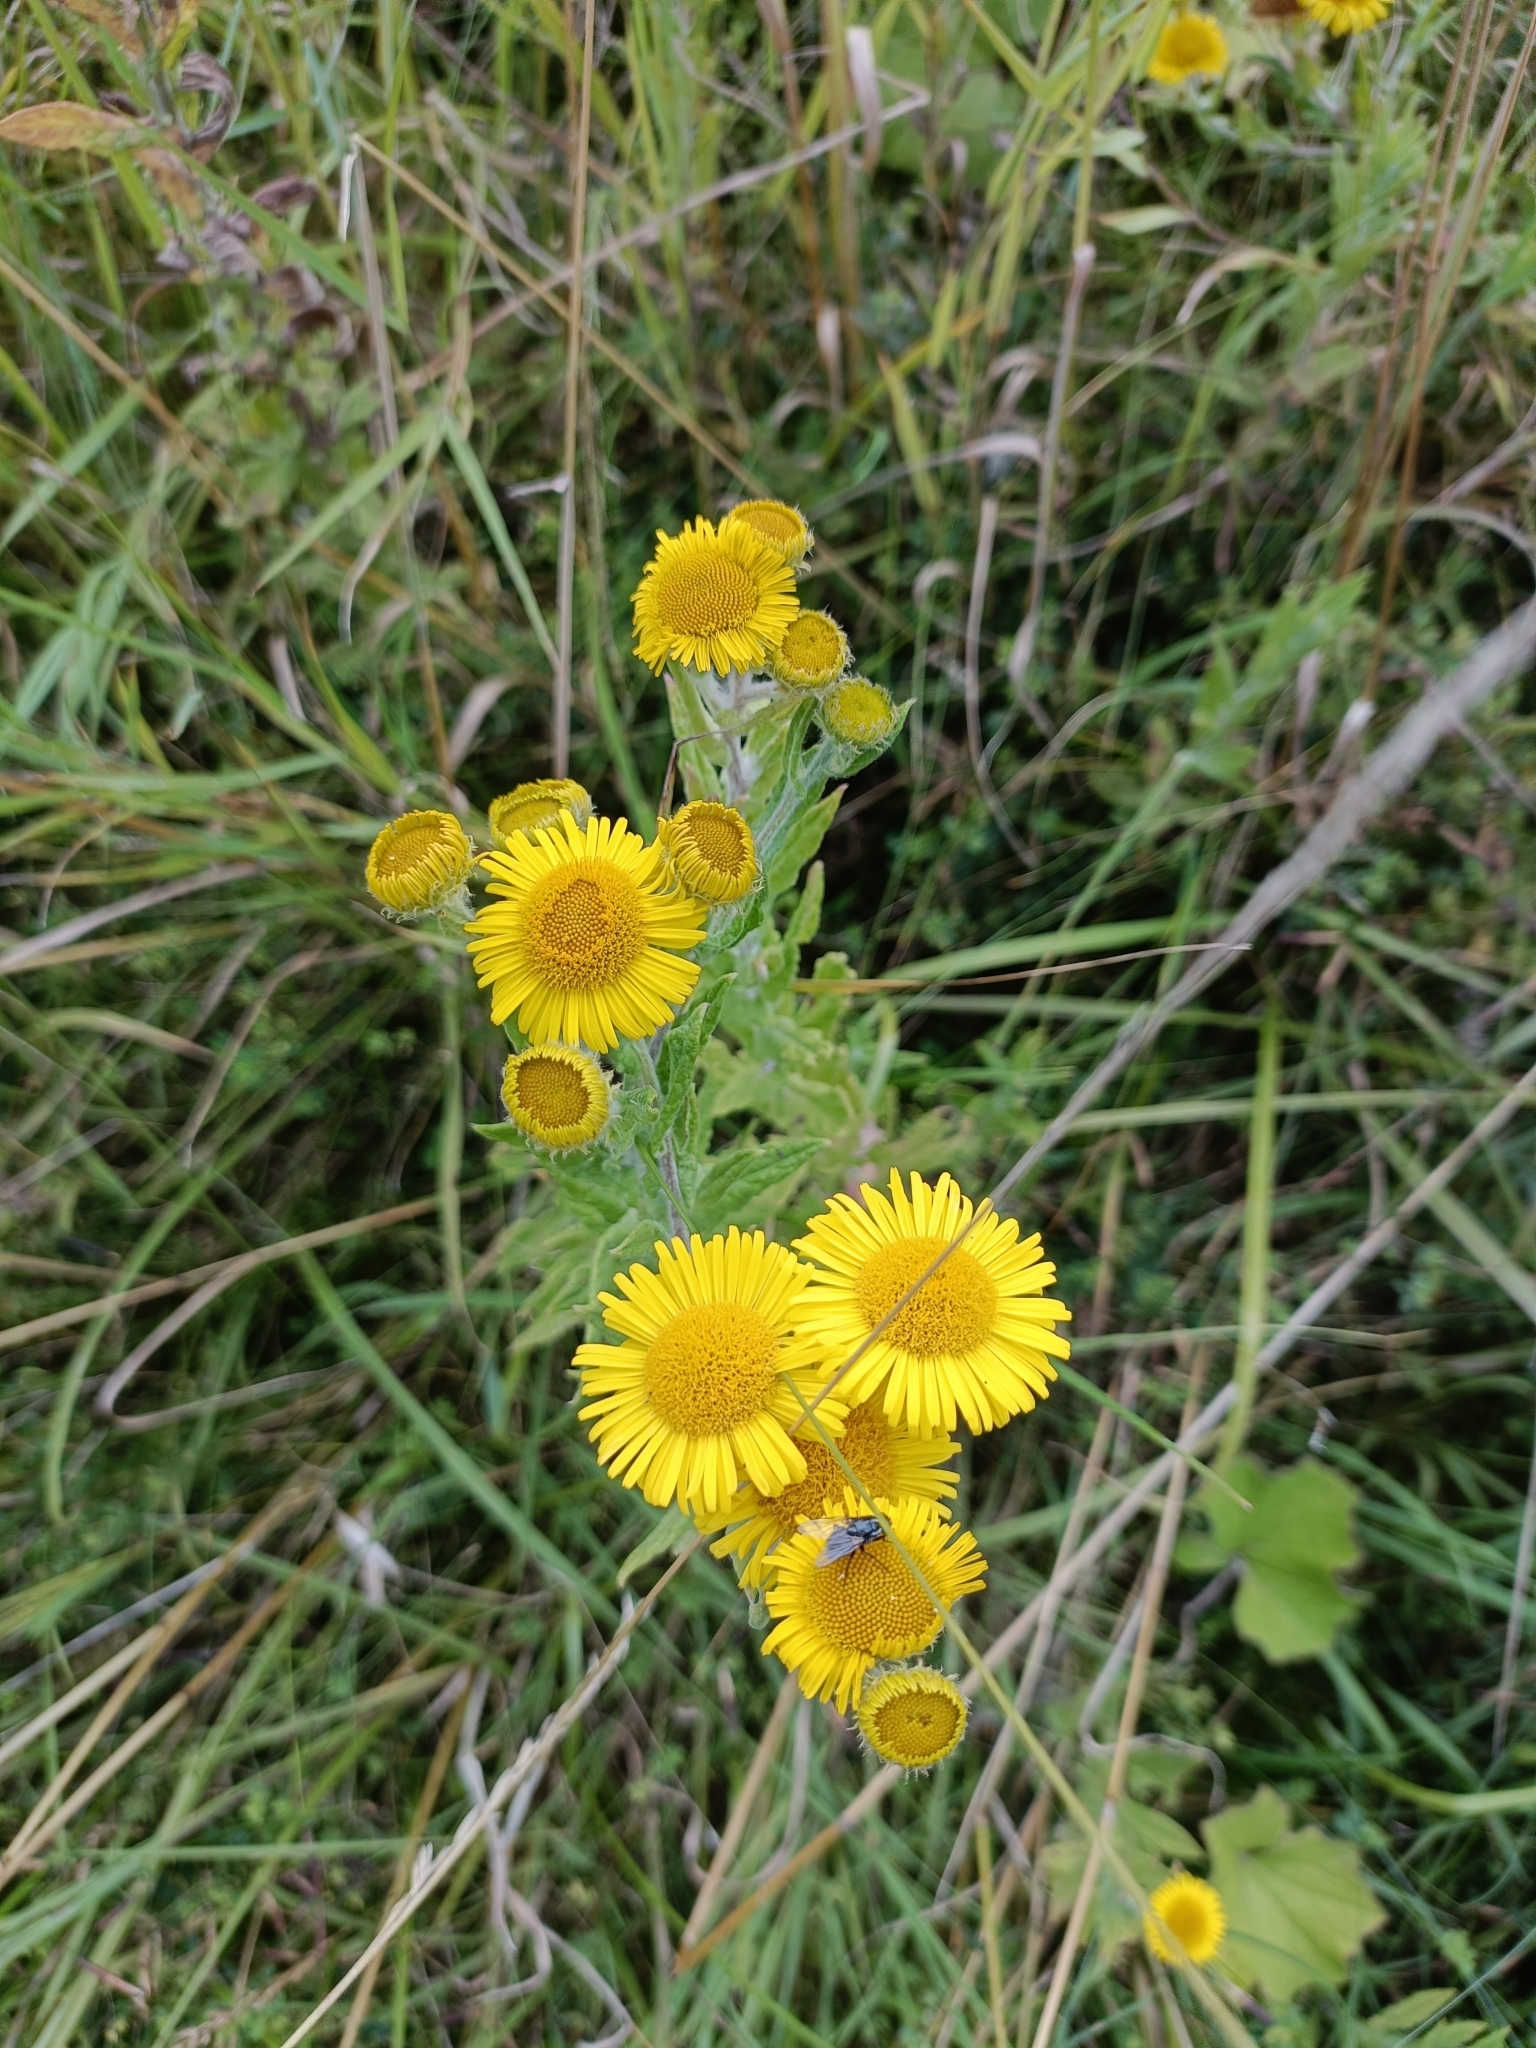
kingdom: Plantae
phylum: Tracheophyta
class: Magnoliopsida
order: Asterales
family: Asteraceae
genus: Pulicaria
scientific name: Pulicaria dysenterica
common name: Common fleabane
